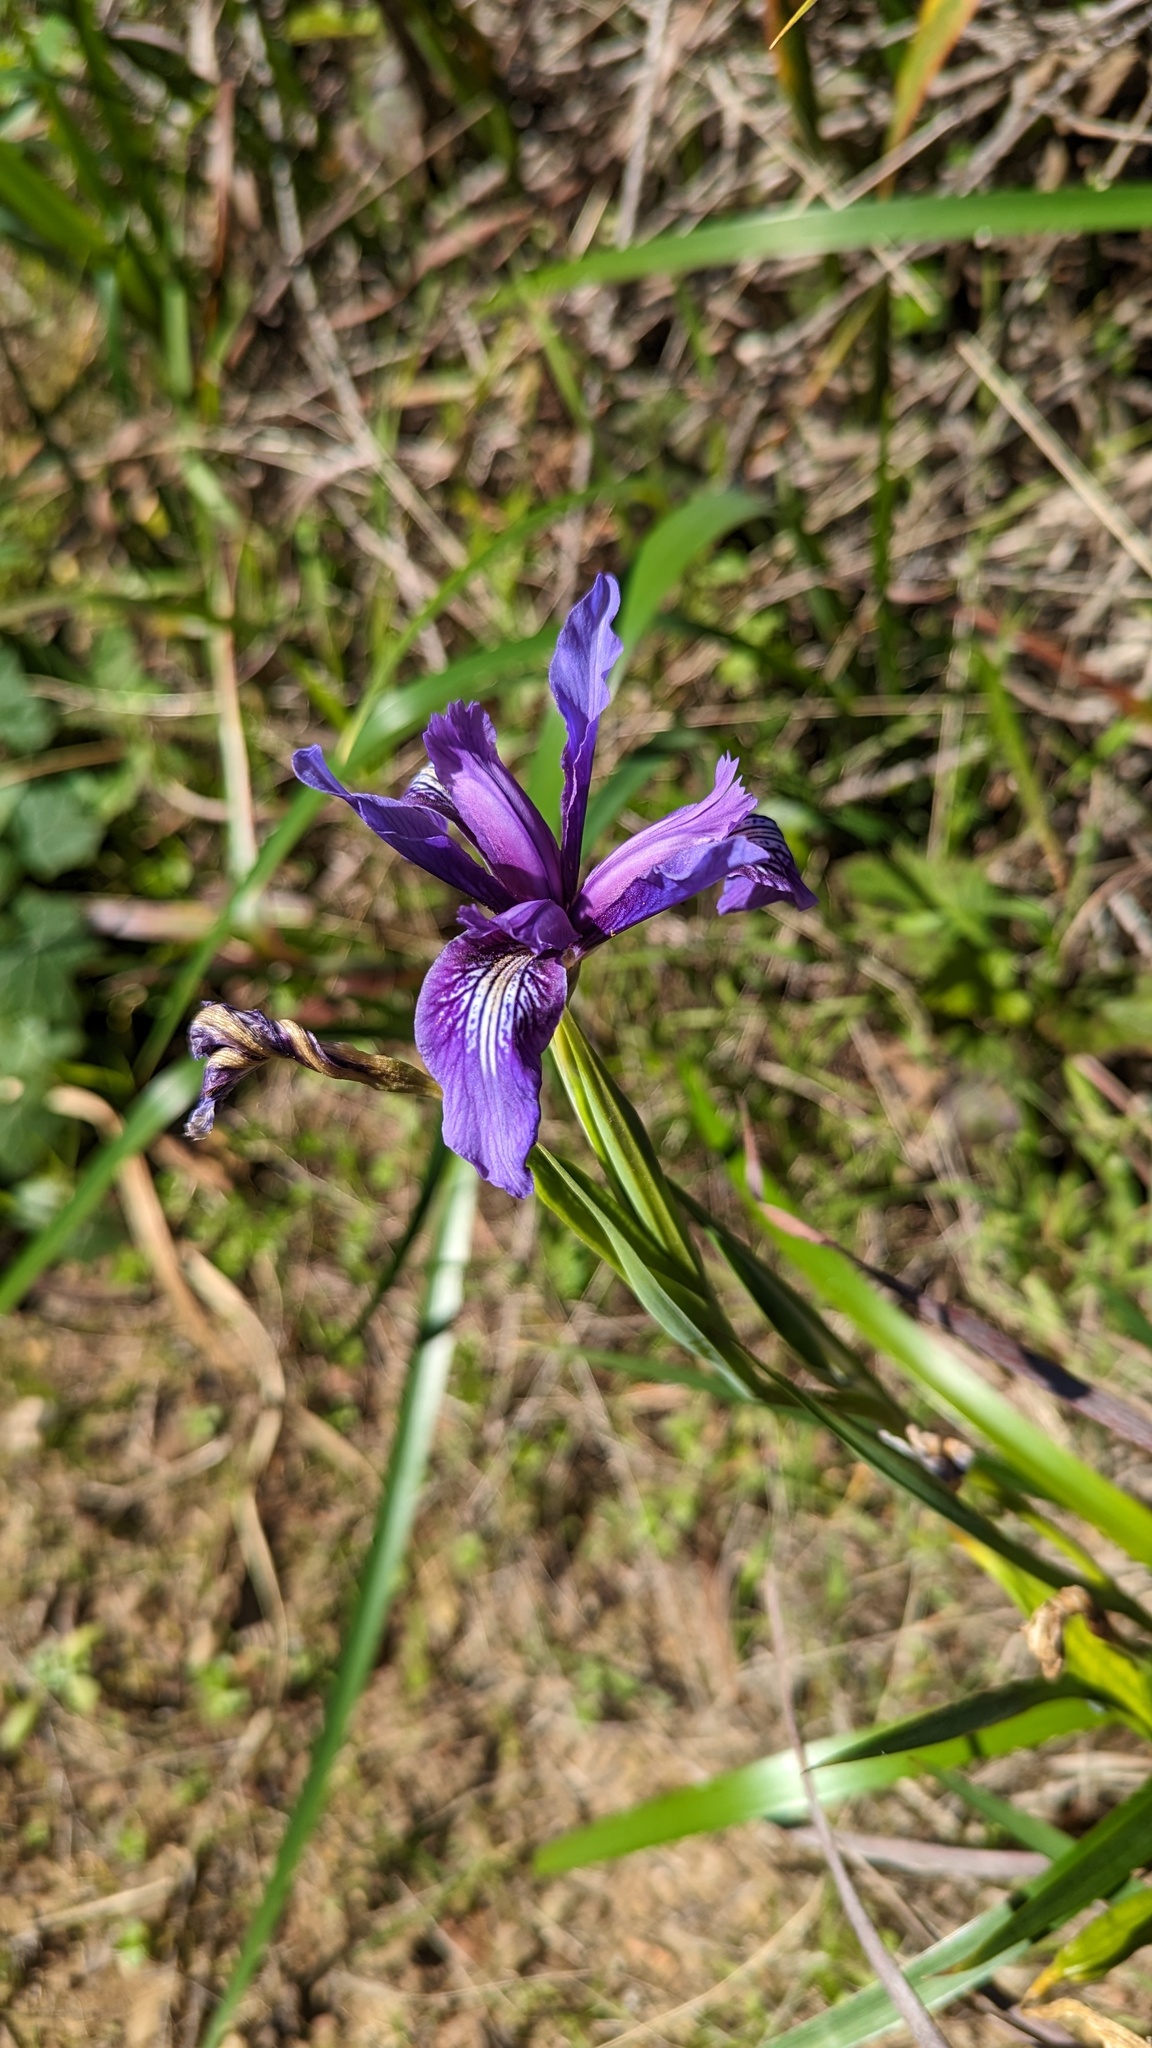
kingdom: Plantae
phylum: Tracheophyta
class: Liliopsida
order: Asparagales
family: Iridaceae
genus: Iris
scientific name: Iris douglasiana
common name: Marin iris
